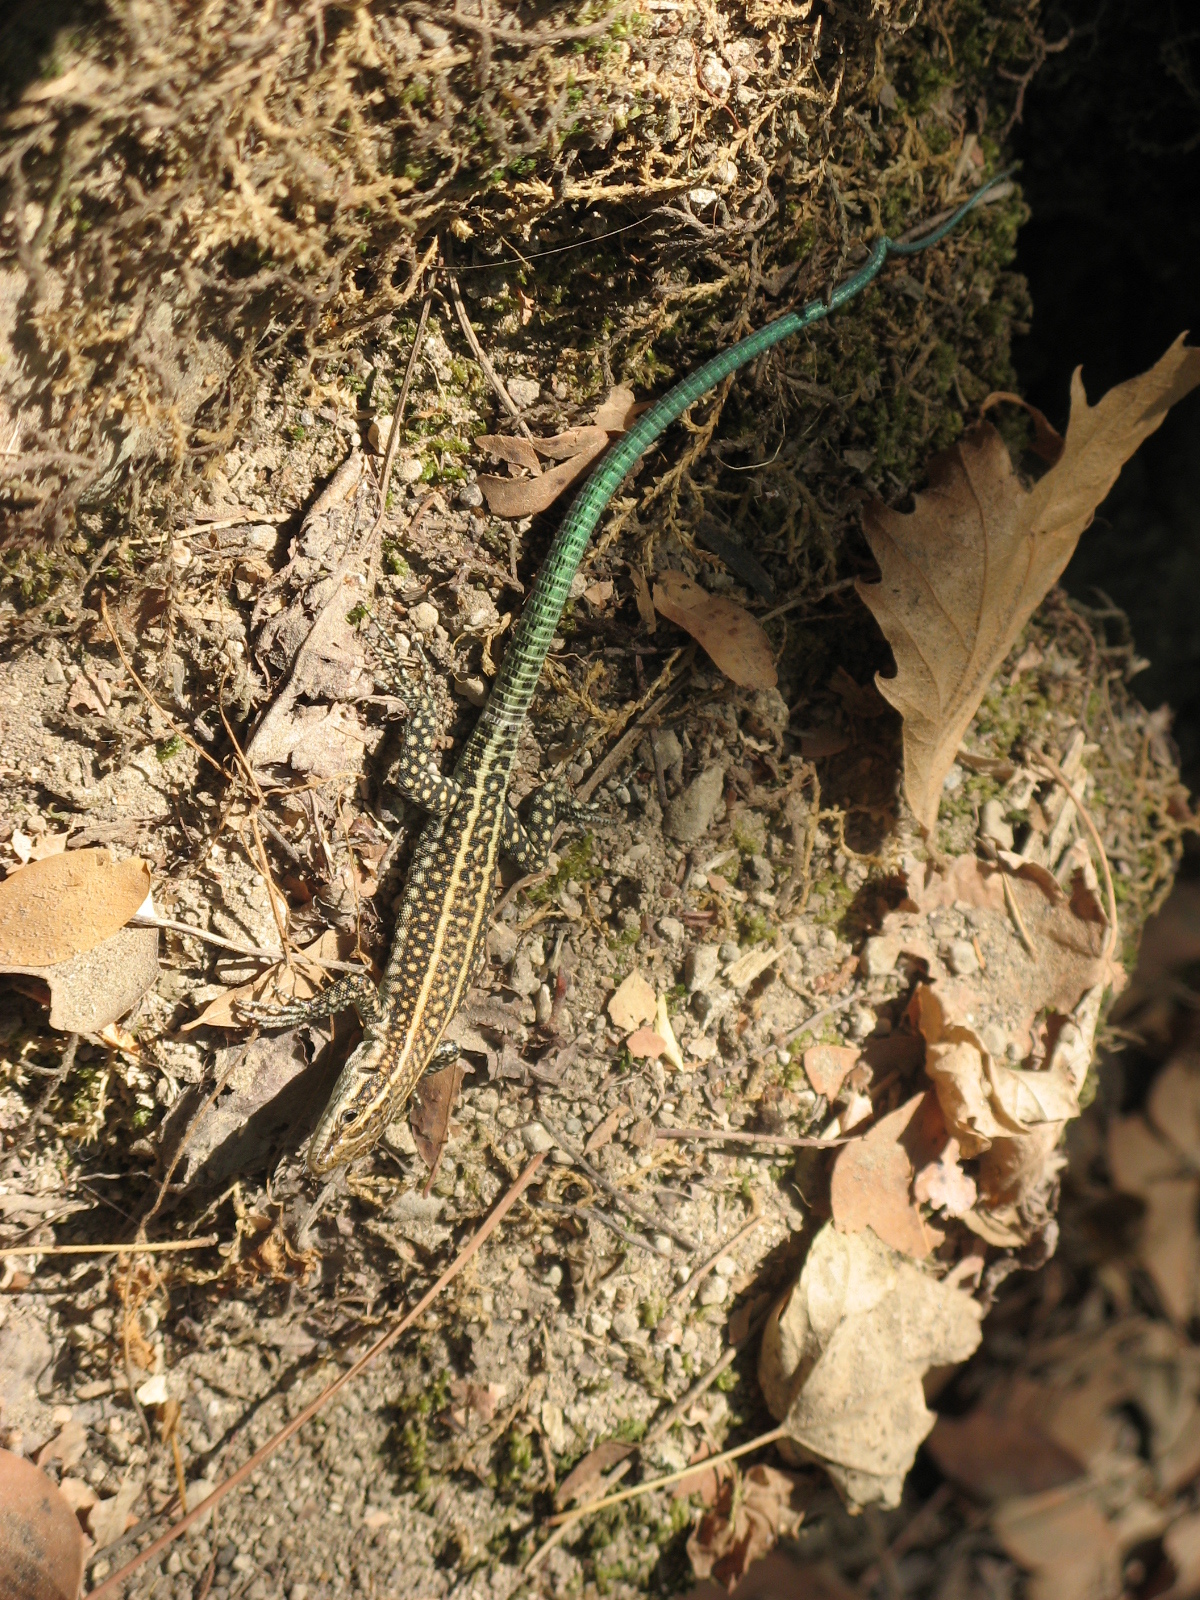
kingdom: Animalia
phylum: Chordata
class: Squamata
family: Lacertidae
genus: Anatololacerta
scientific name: Anatololacerta pelasgiana
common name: Pelasgian rock lizard
